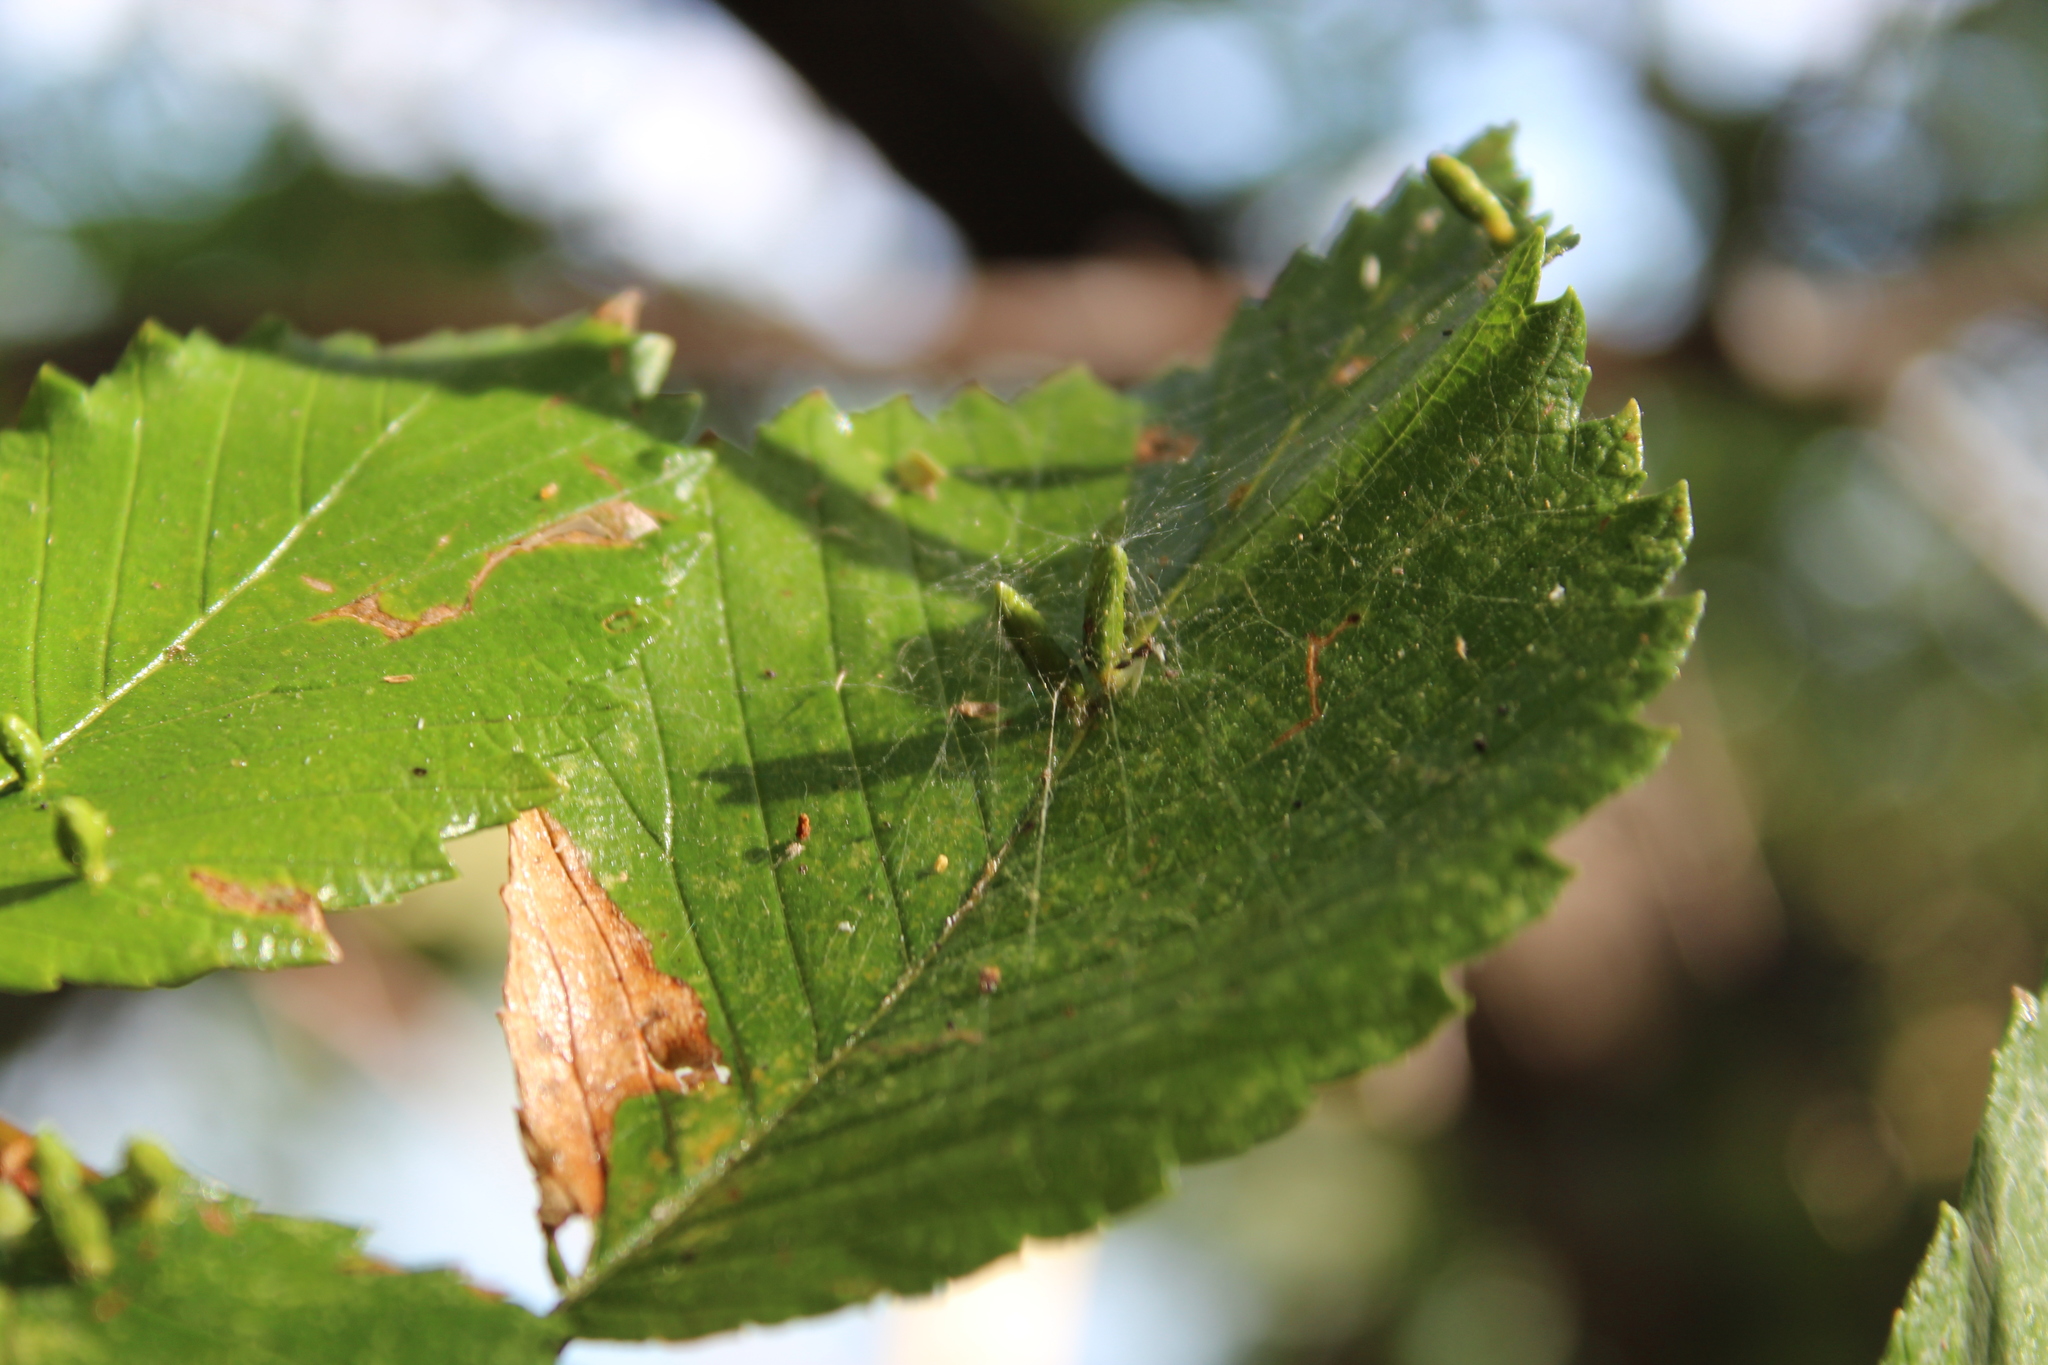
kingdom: Animalia
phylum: Arthropoda
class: Arachnida
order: Trombidiformes
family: Eriophyidae
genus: Aceria
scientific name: Aceria
